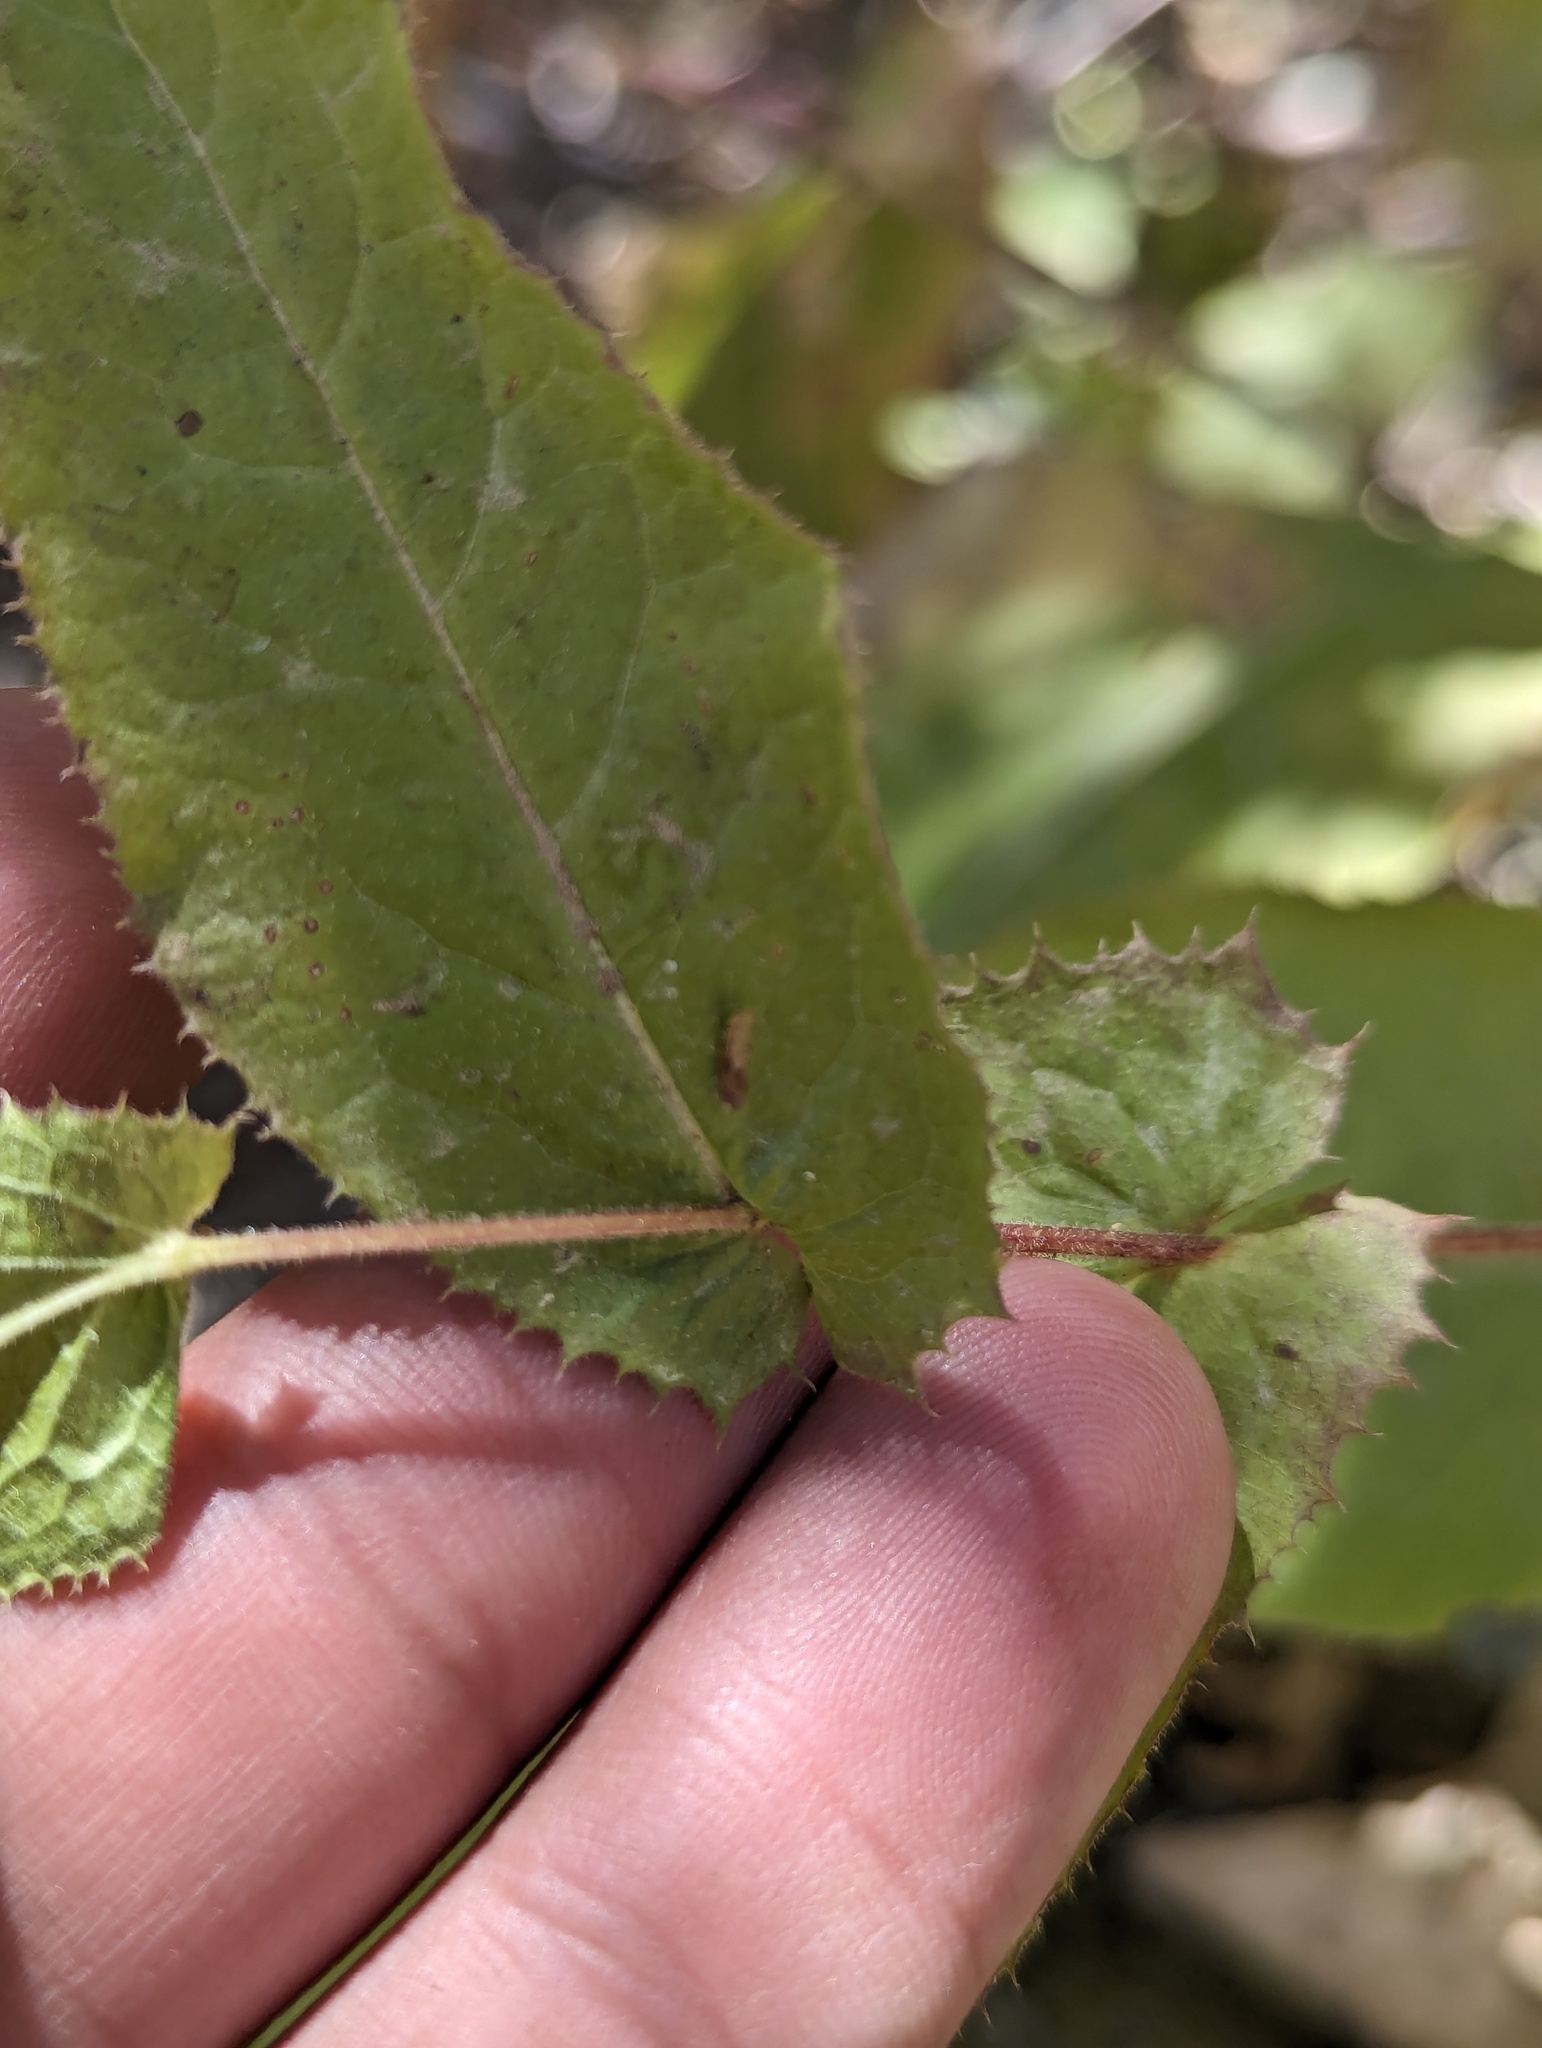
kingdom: Plantae
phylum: Tracheophyta
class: Magnoliopsida
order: Asterales
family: Asteraceae
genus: Acourtia
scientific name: Acourtia pinetorum
